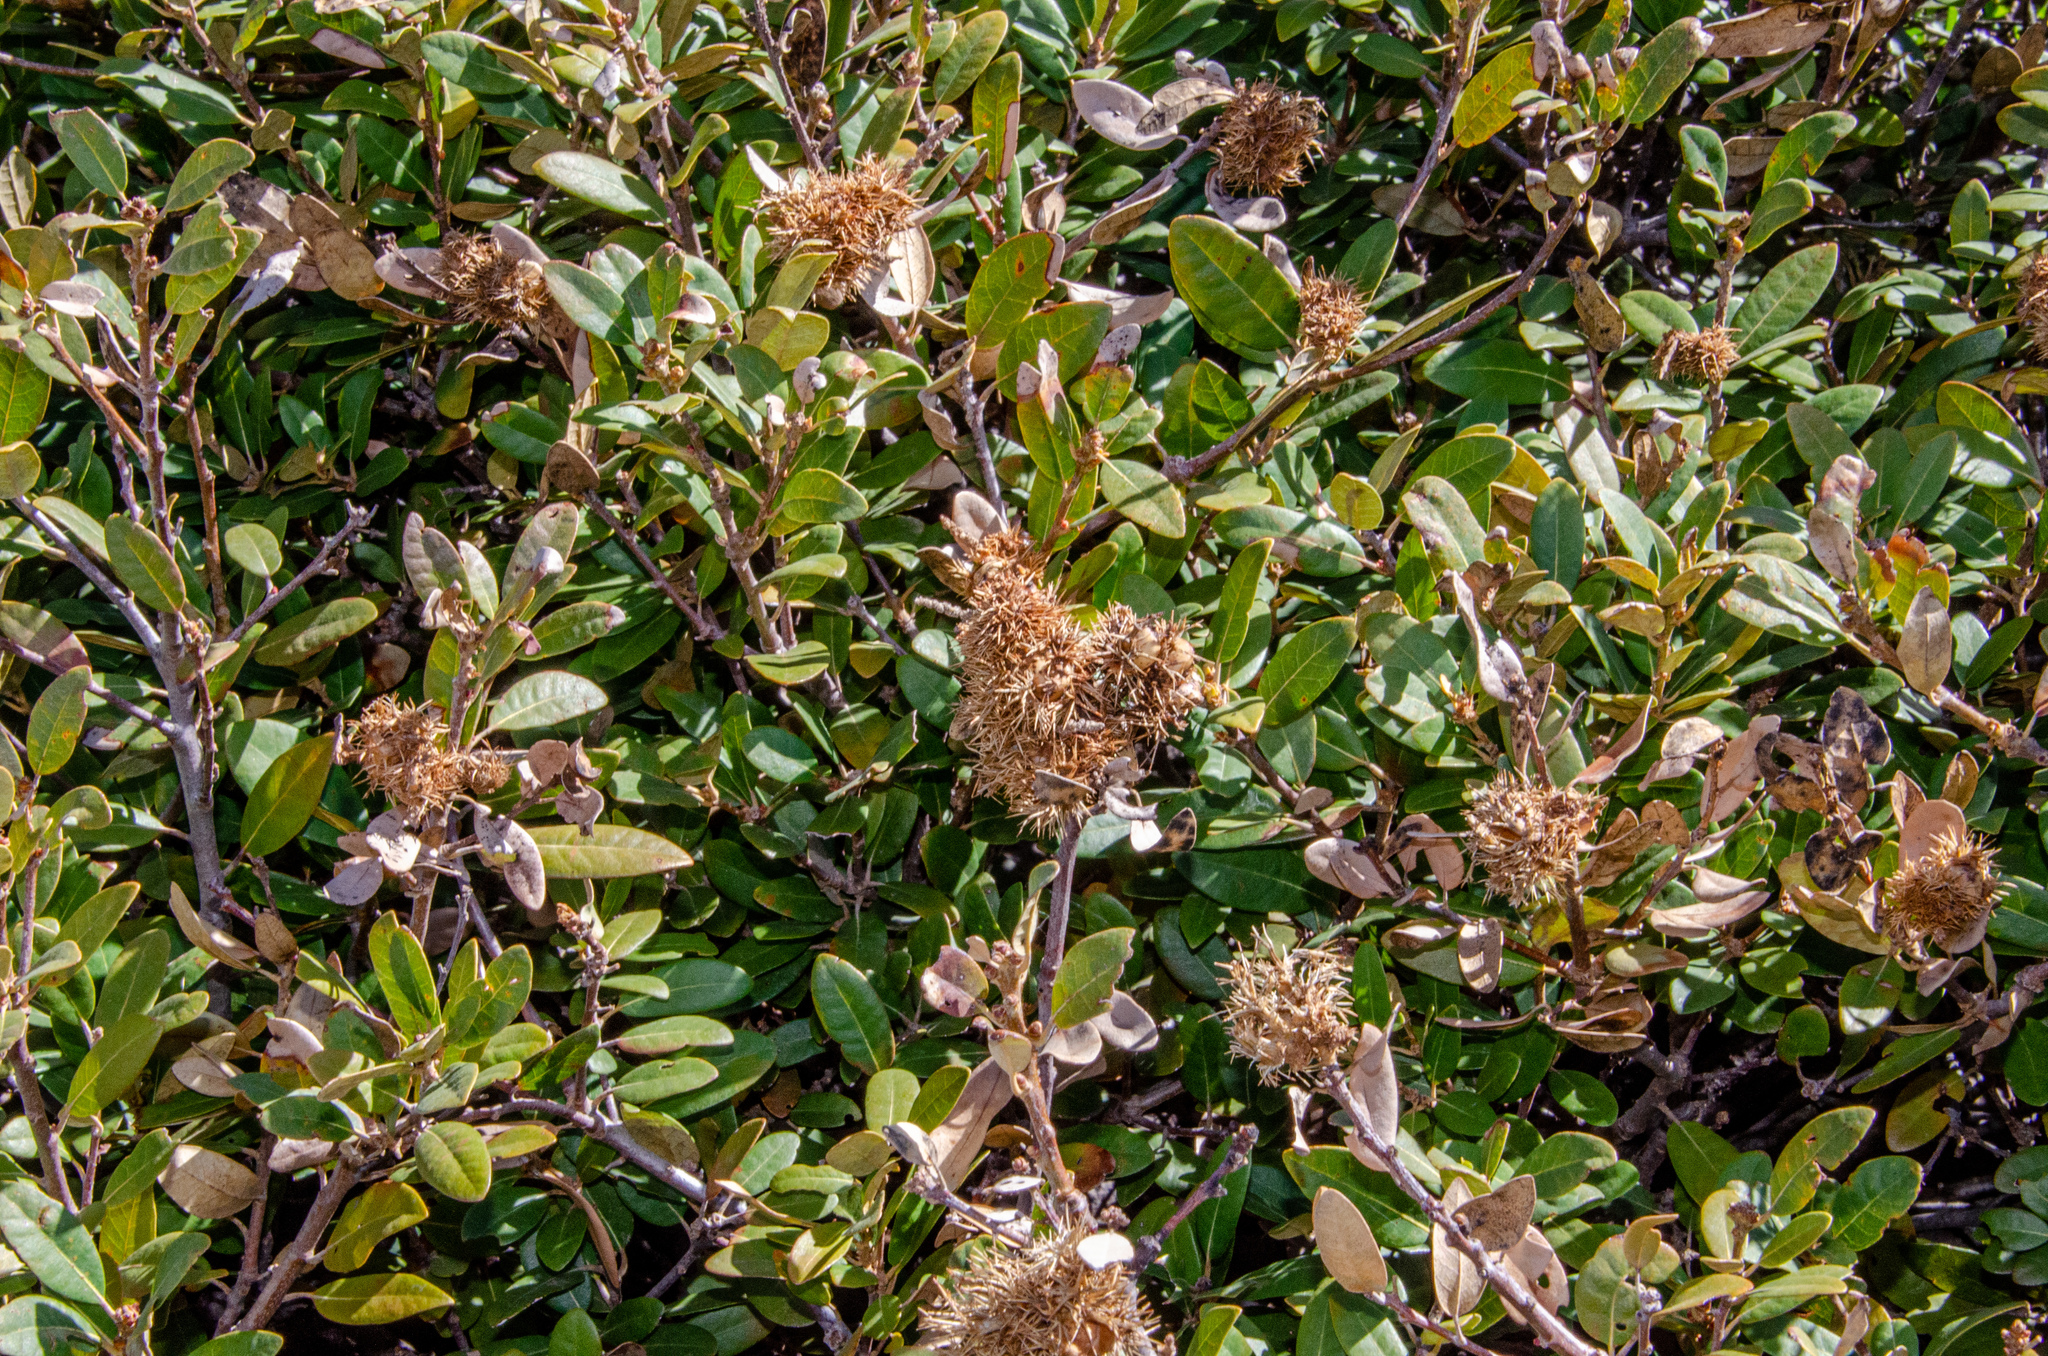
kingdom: Plantae
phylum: Tracheophyta
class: Magnoliopsida
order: Fagales
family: Fagaceae
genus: Chrysolepis
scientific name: Chrysolepis sempervirens
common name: Bush chinquapin
